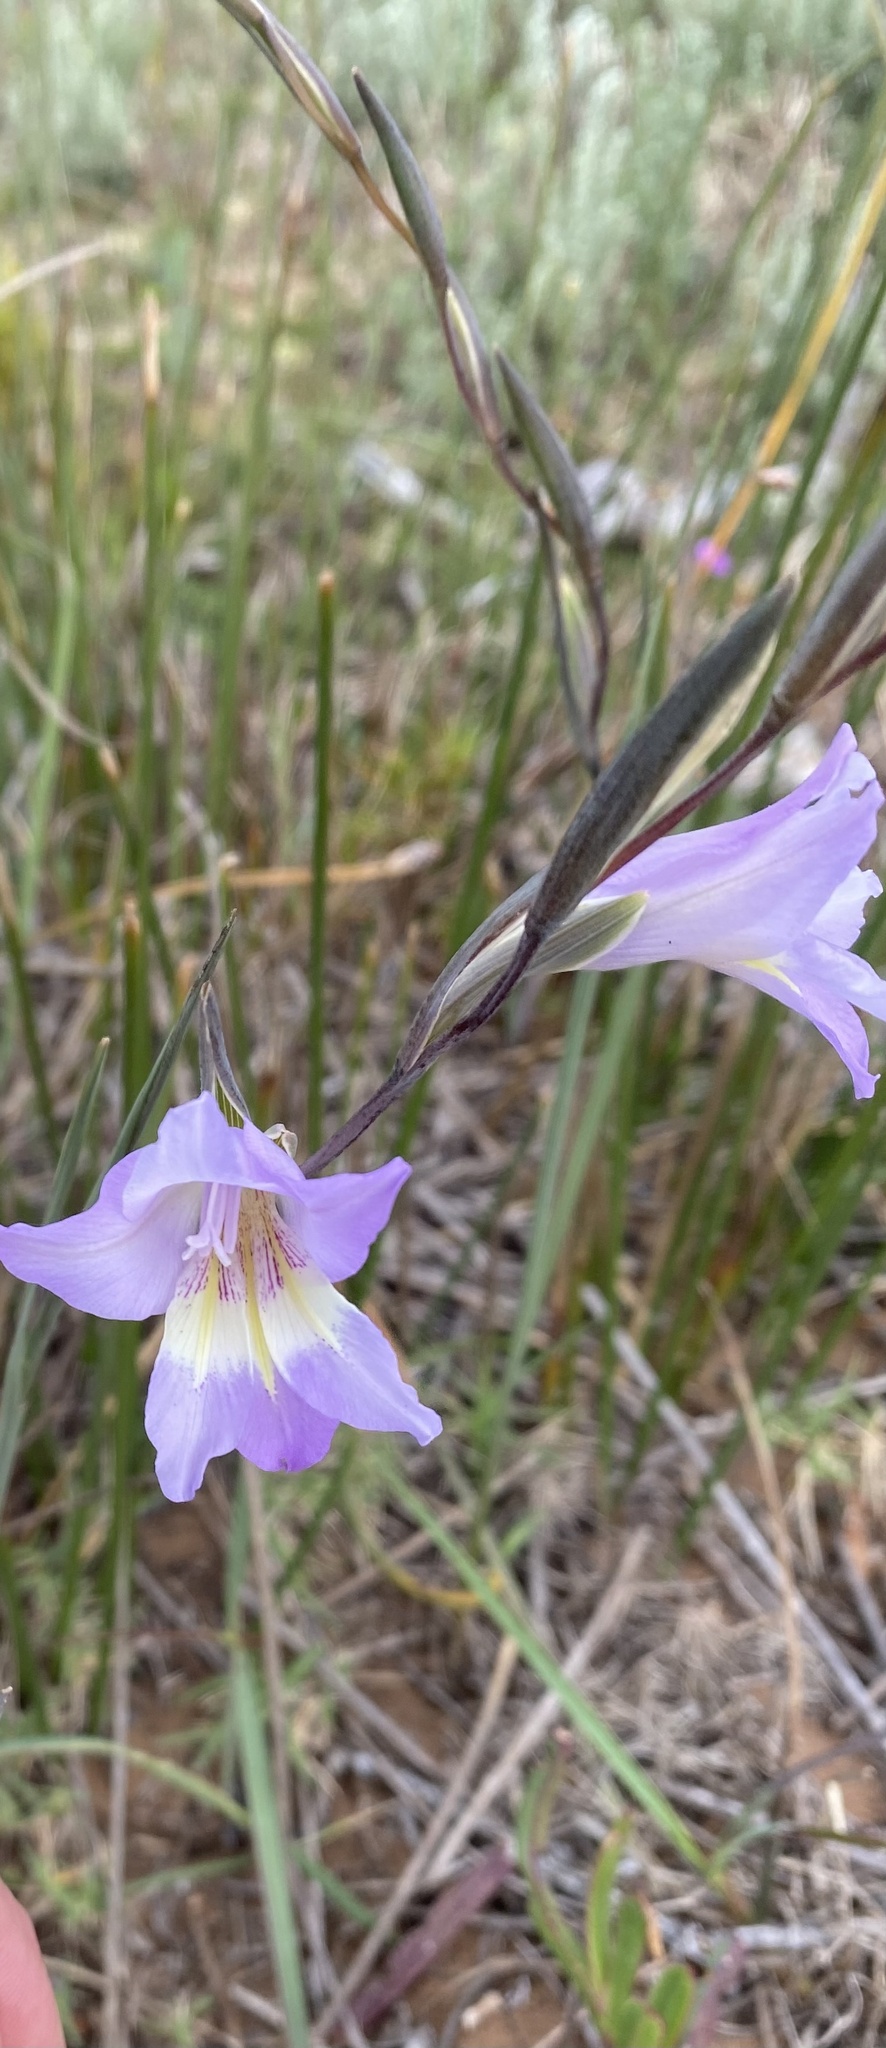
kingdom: Plantae
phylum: Tracheophyta
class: Liliopsida
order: Asparagales
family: Iridaceae
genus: Gladiolus
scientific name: Gladiolus carinatus
